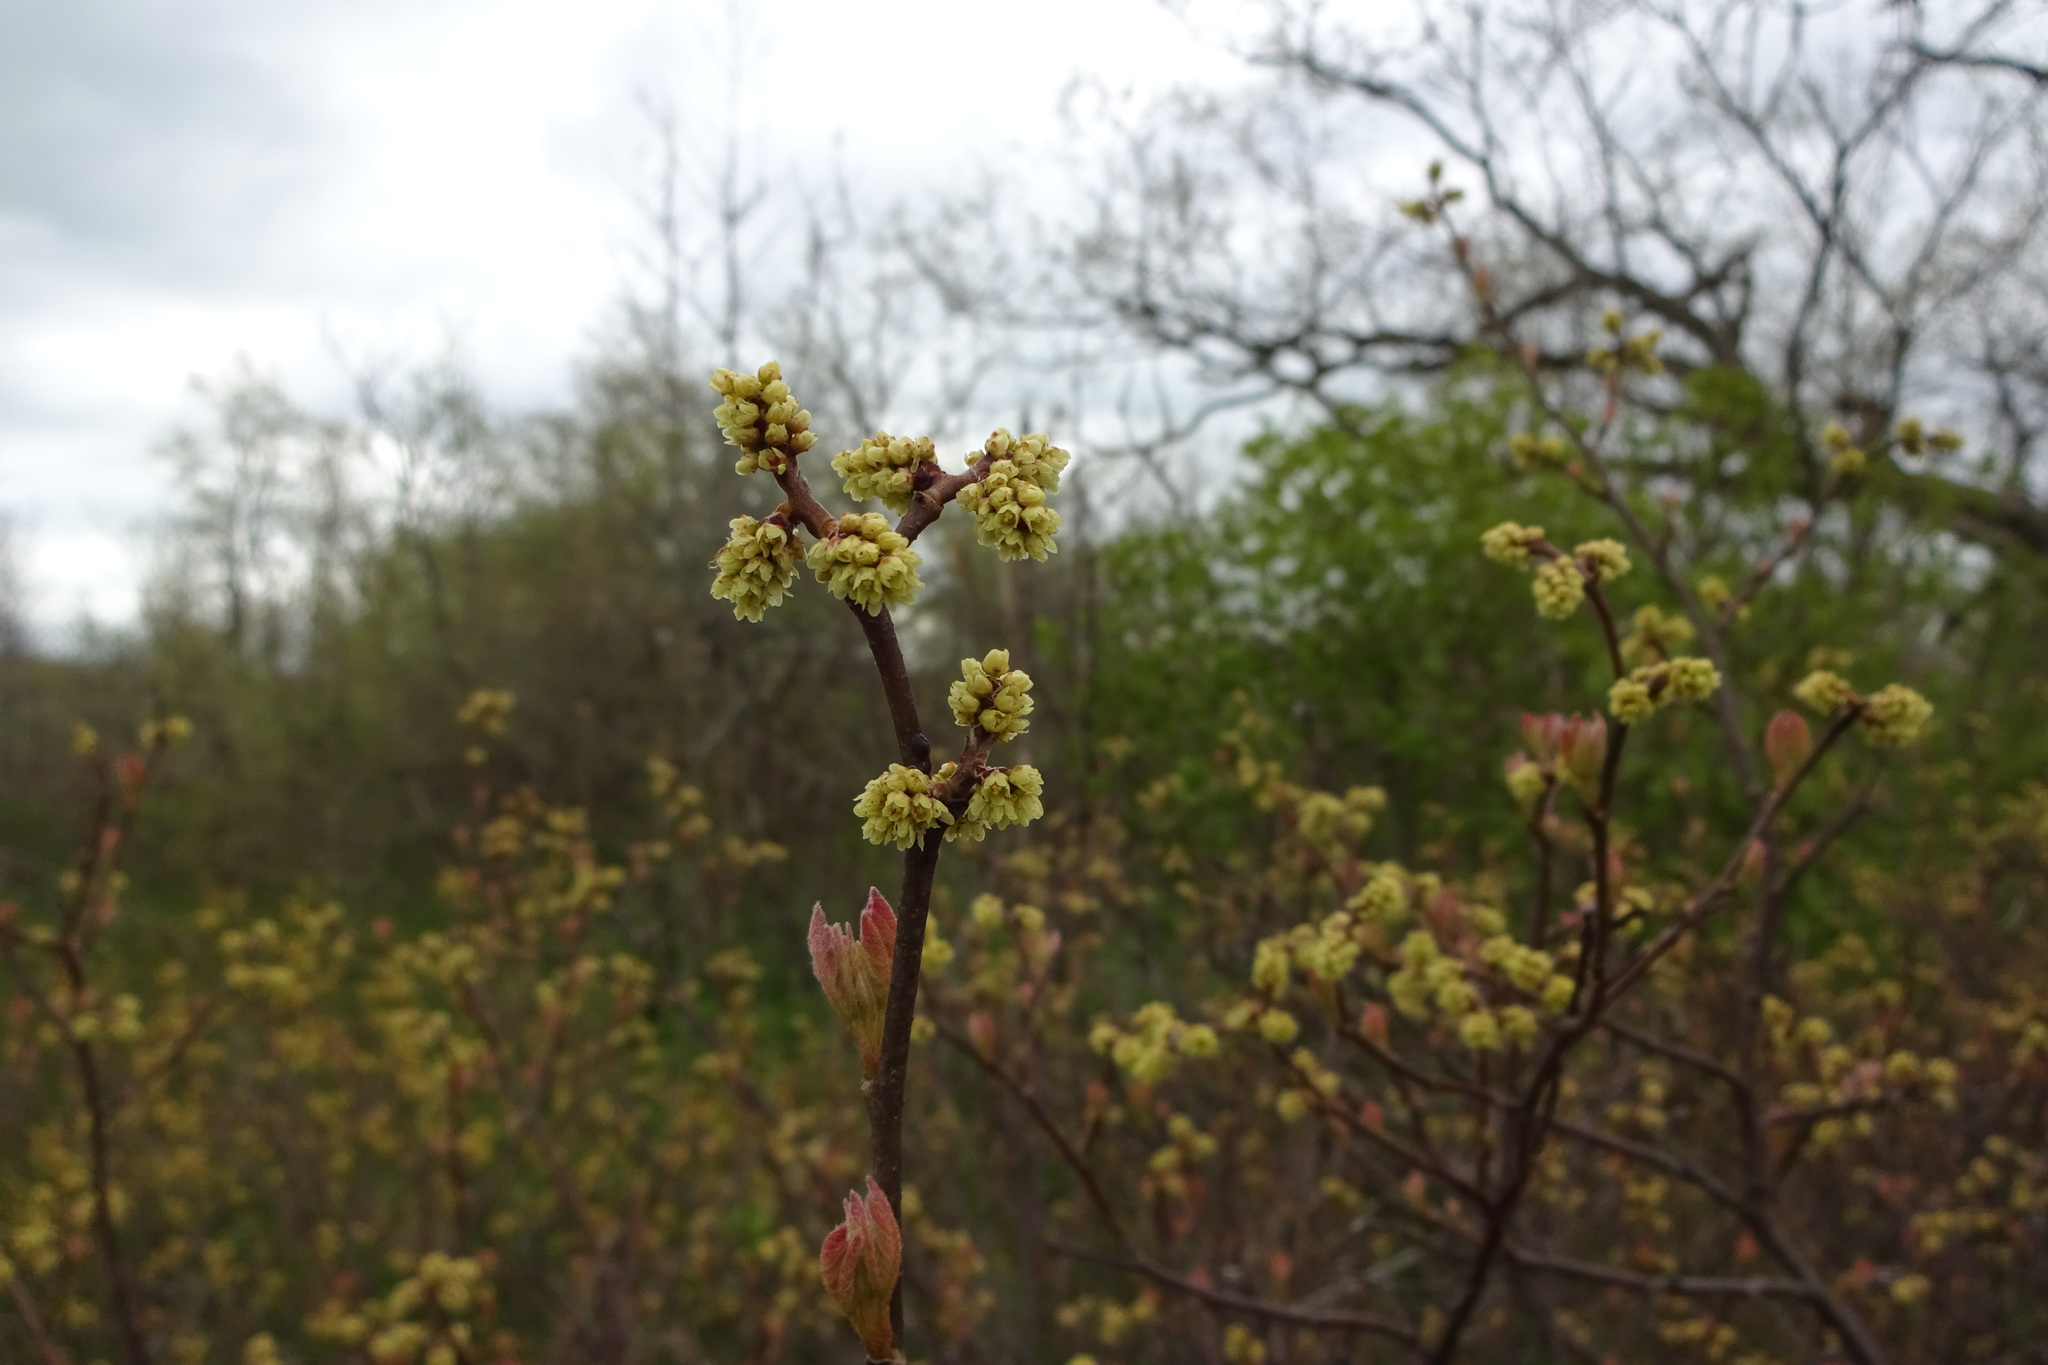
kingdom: Plantae
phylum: Tracheophyta
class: Magnoliopsida
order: Laurales
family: Lauraceae
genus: Lindera
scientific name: Lindera benzoin
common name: Spicebush
